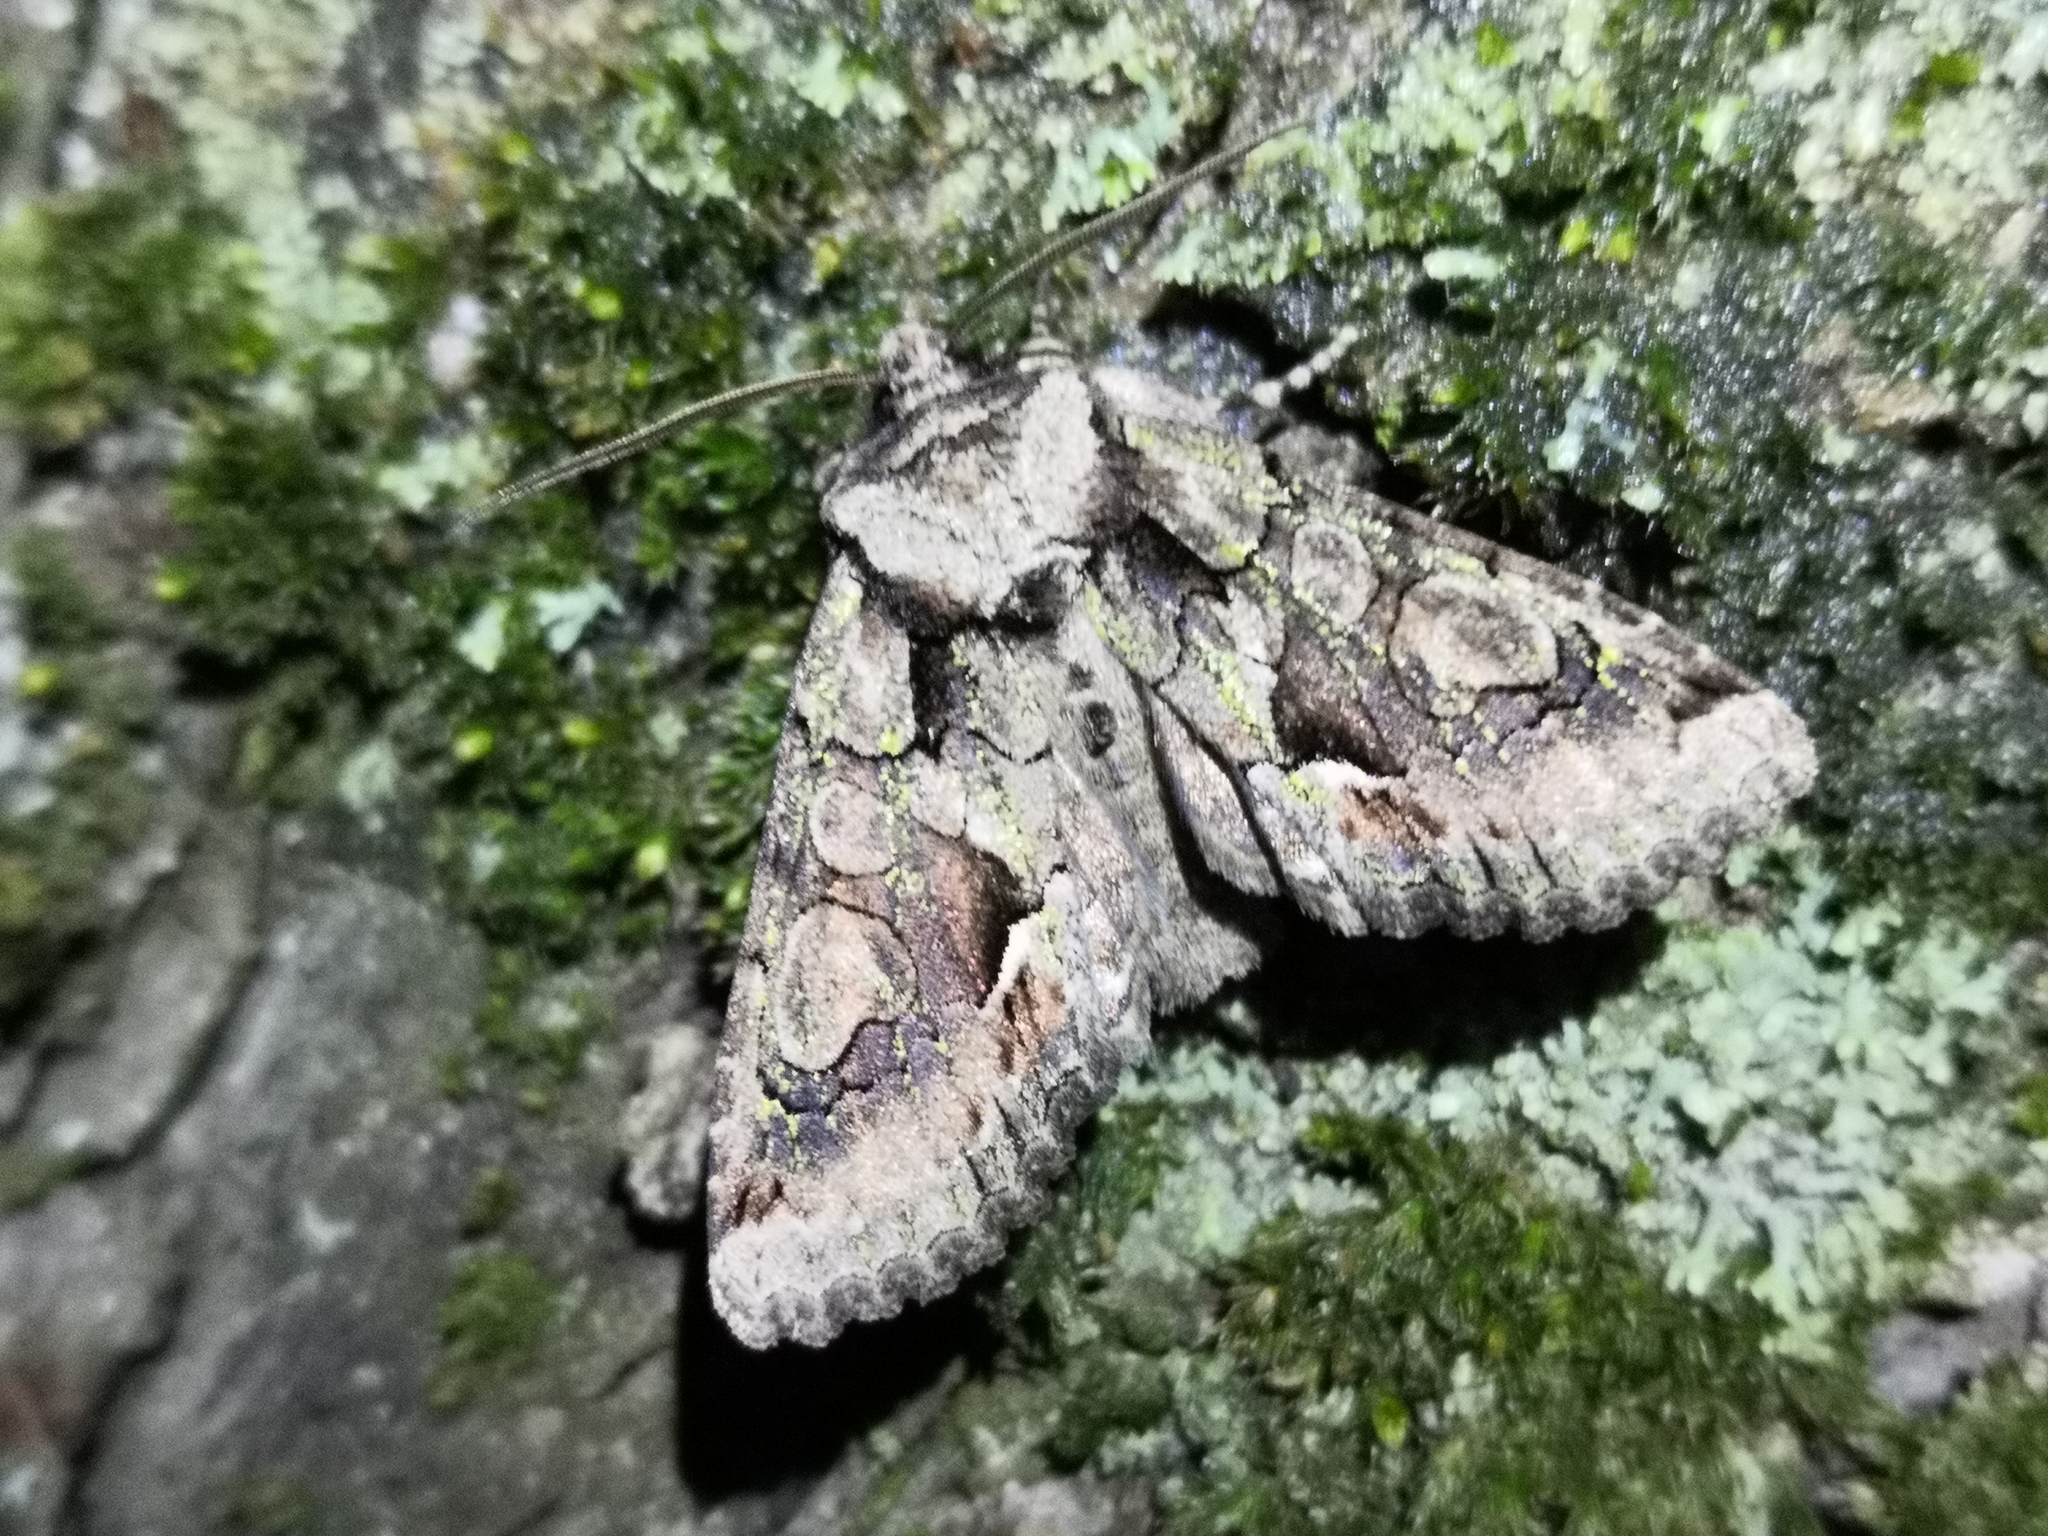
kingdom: Animalia
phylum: Arthropoda
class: Insecta
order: Lepidoptera
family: Noctuidae
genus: Allophyes
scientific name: Allophyes oxyacanthae
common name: Green-brindled crescent
